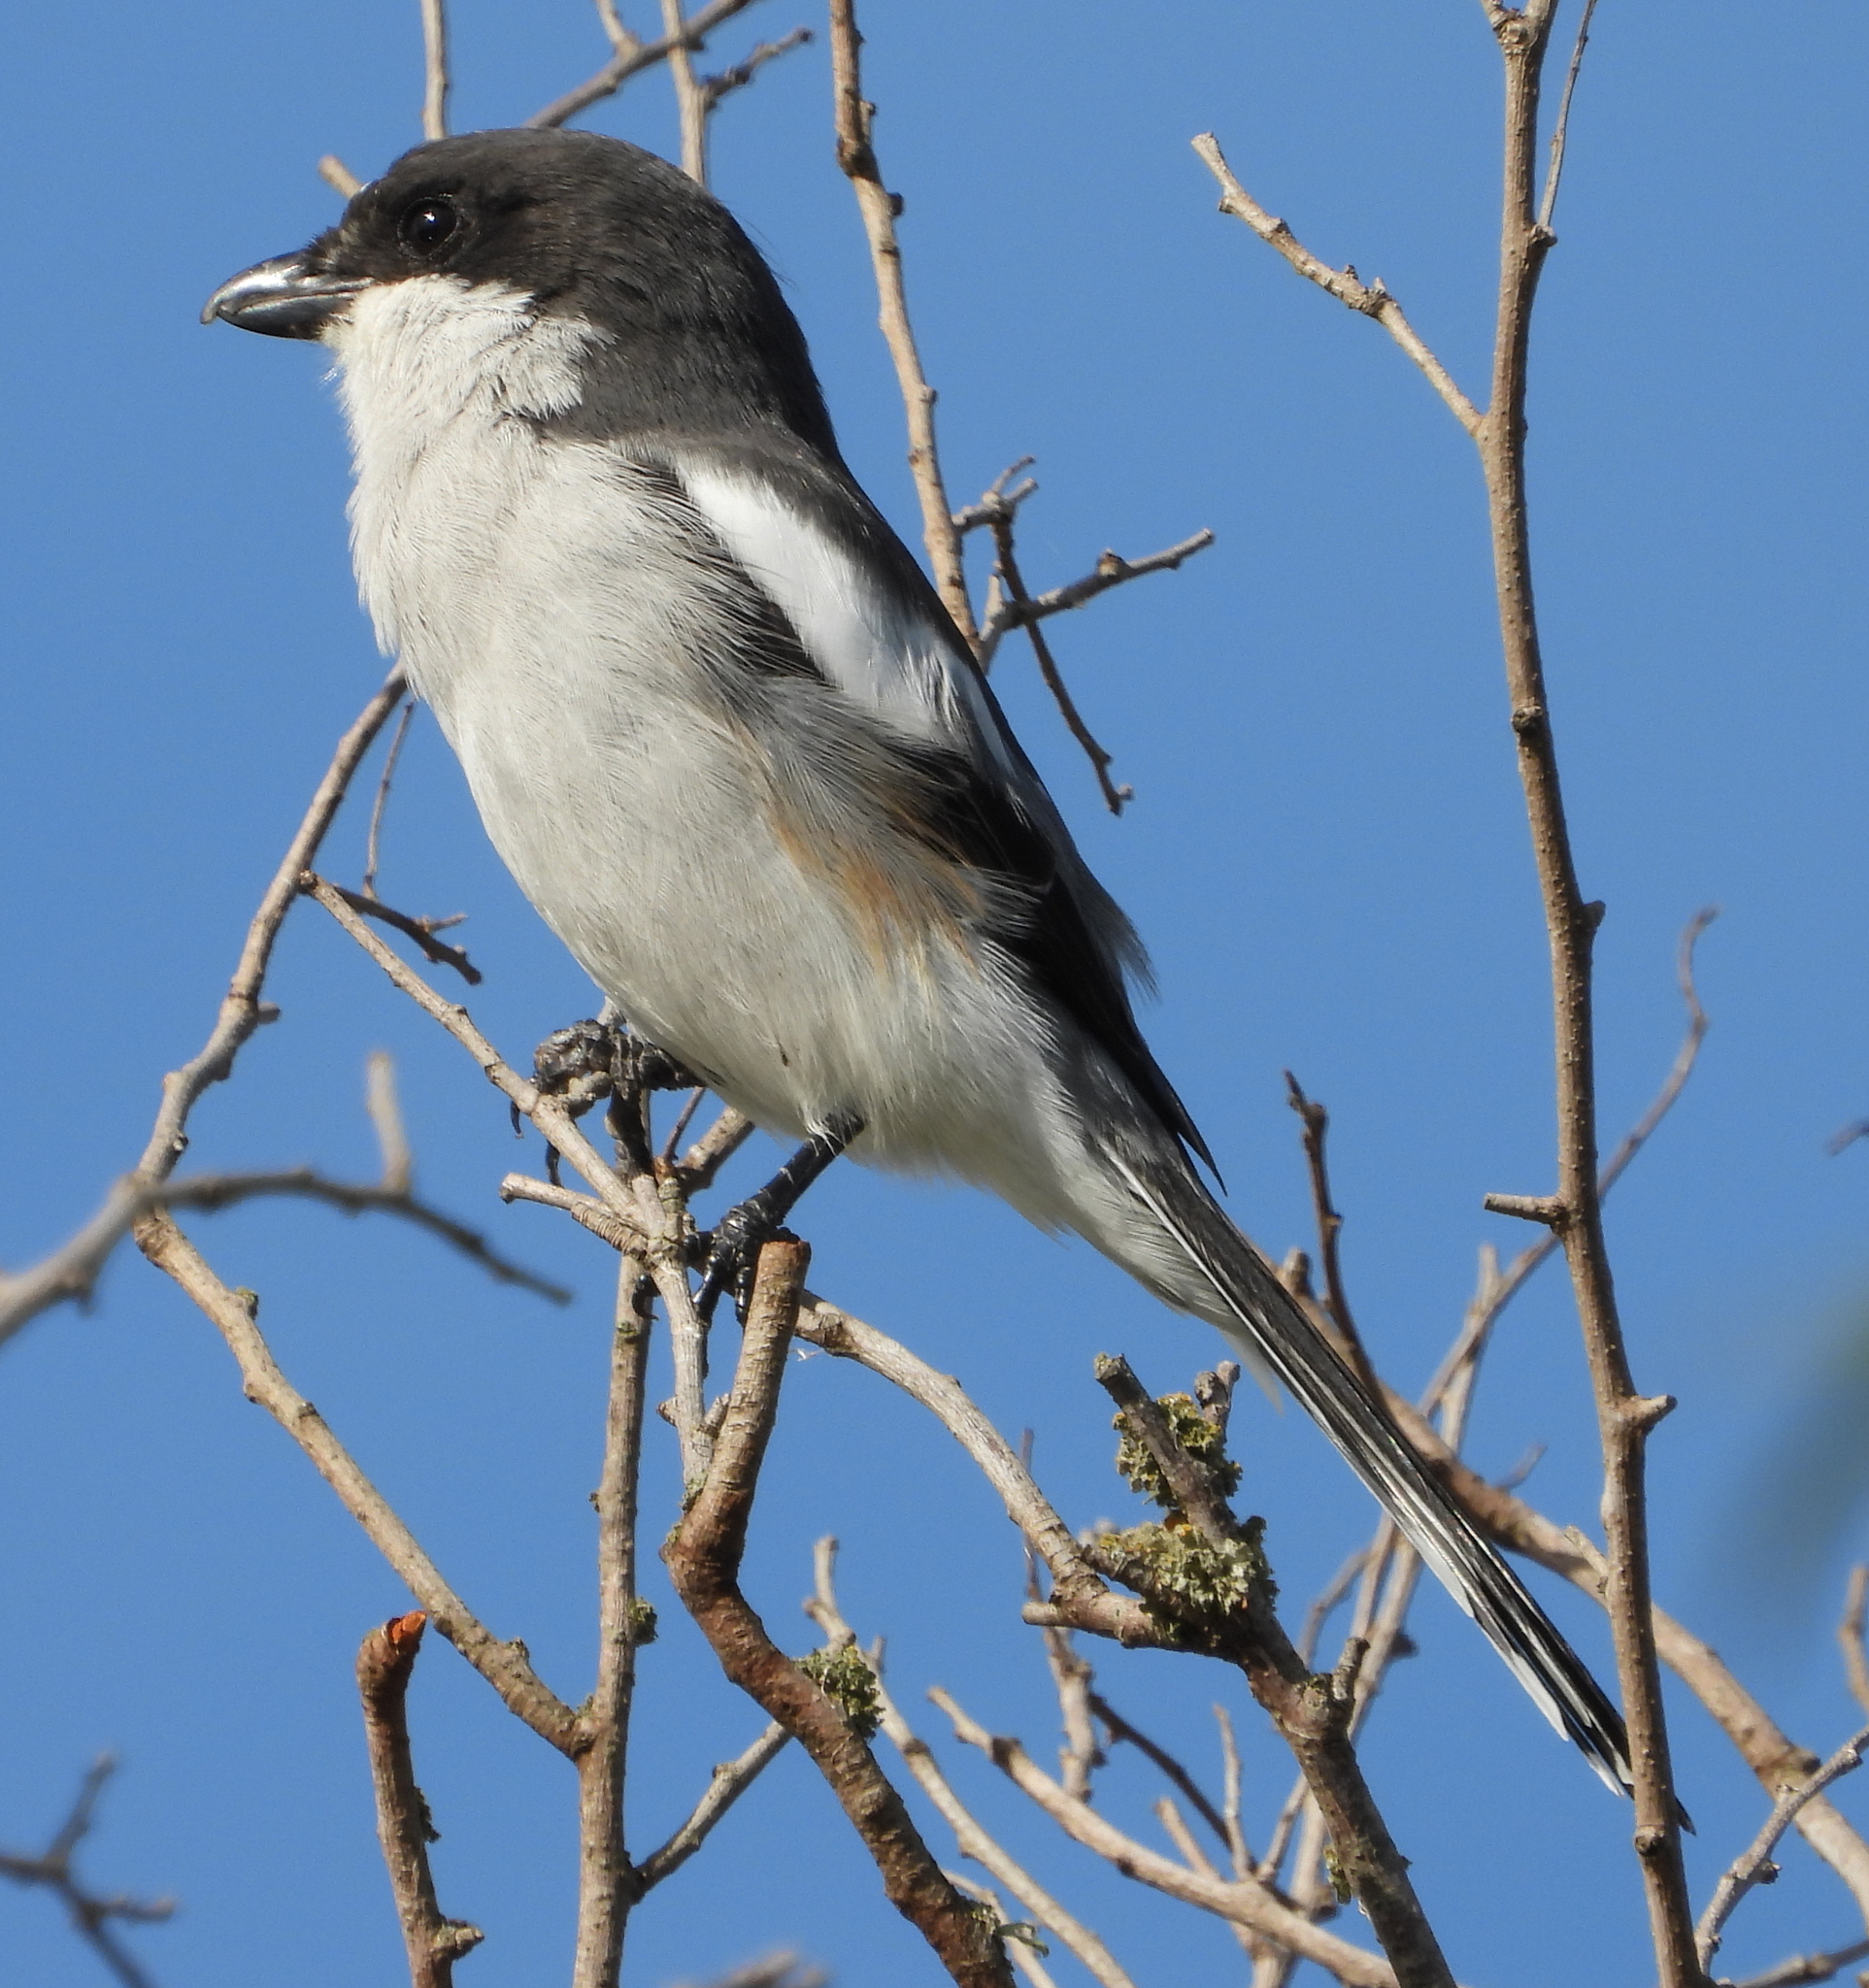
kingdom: Animalia
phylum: Chordata
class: Aves
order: Passeriformes
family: Laniidae
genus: Lanius
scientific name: Lanius collaris
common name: Southern fiscal
